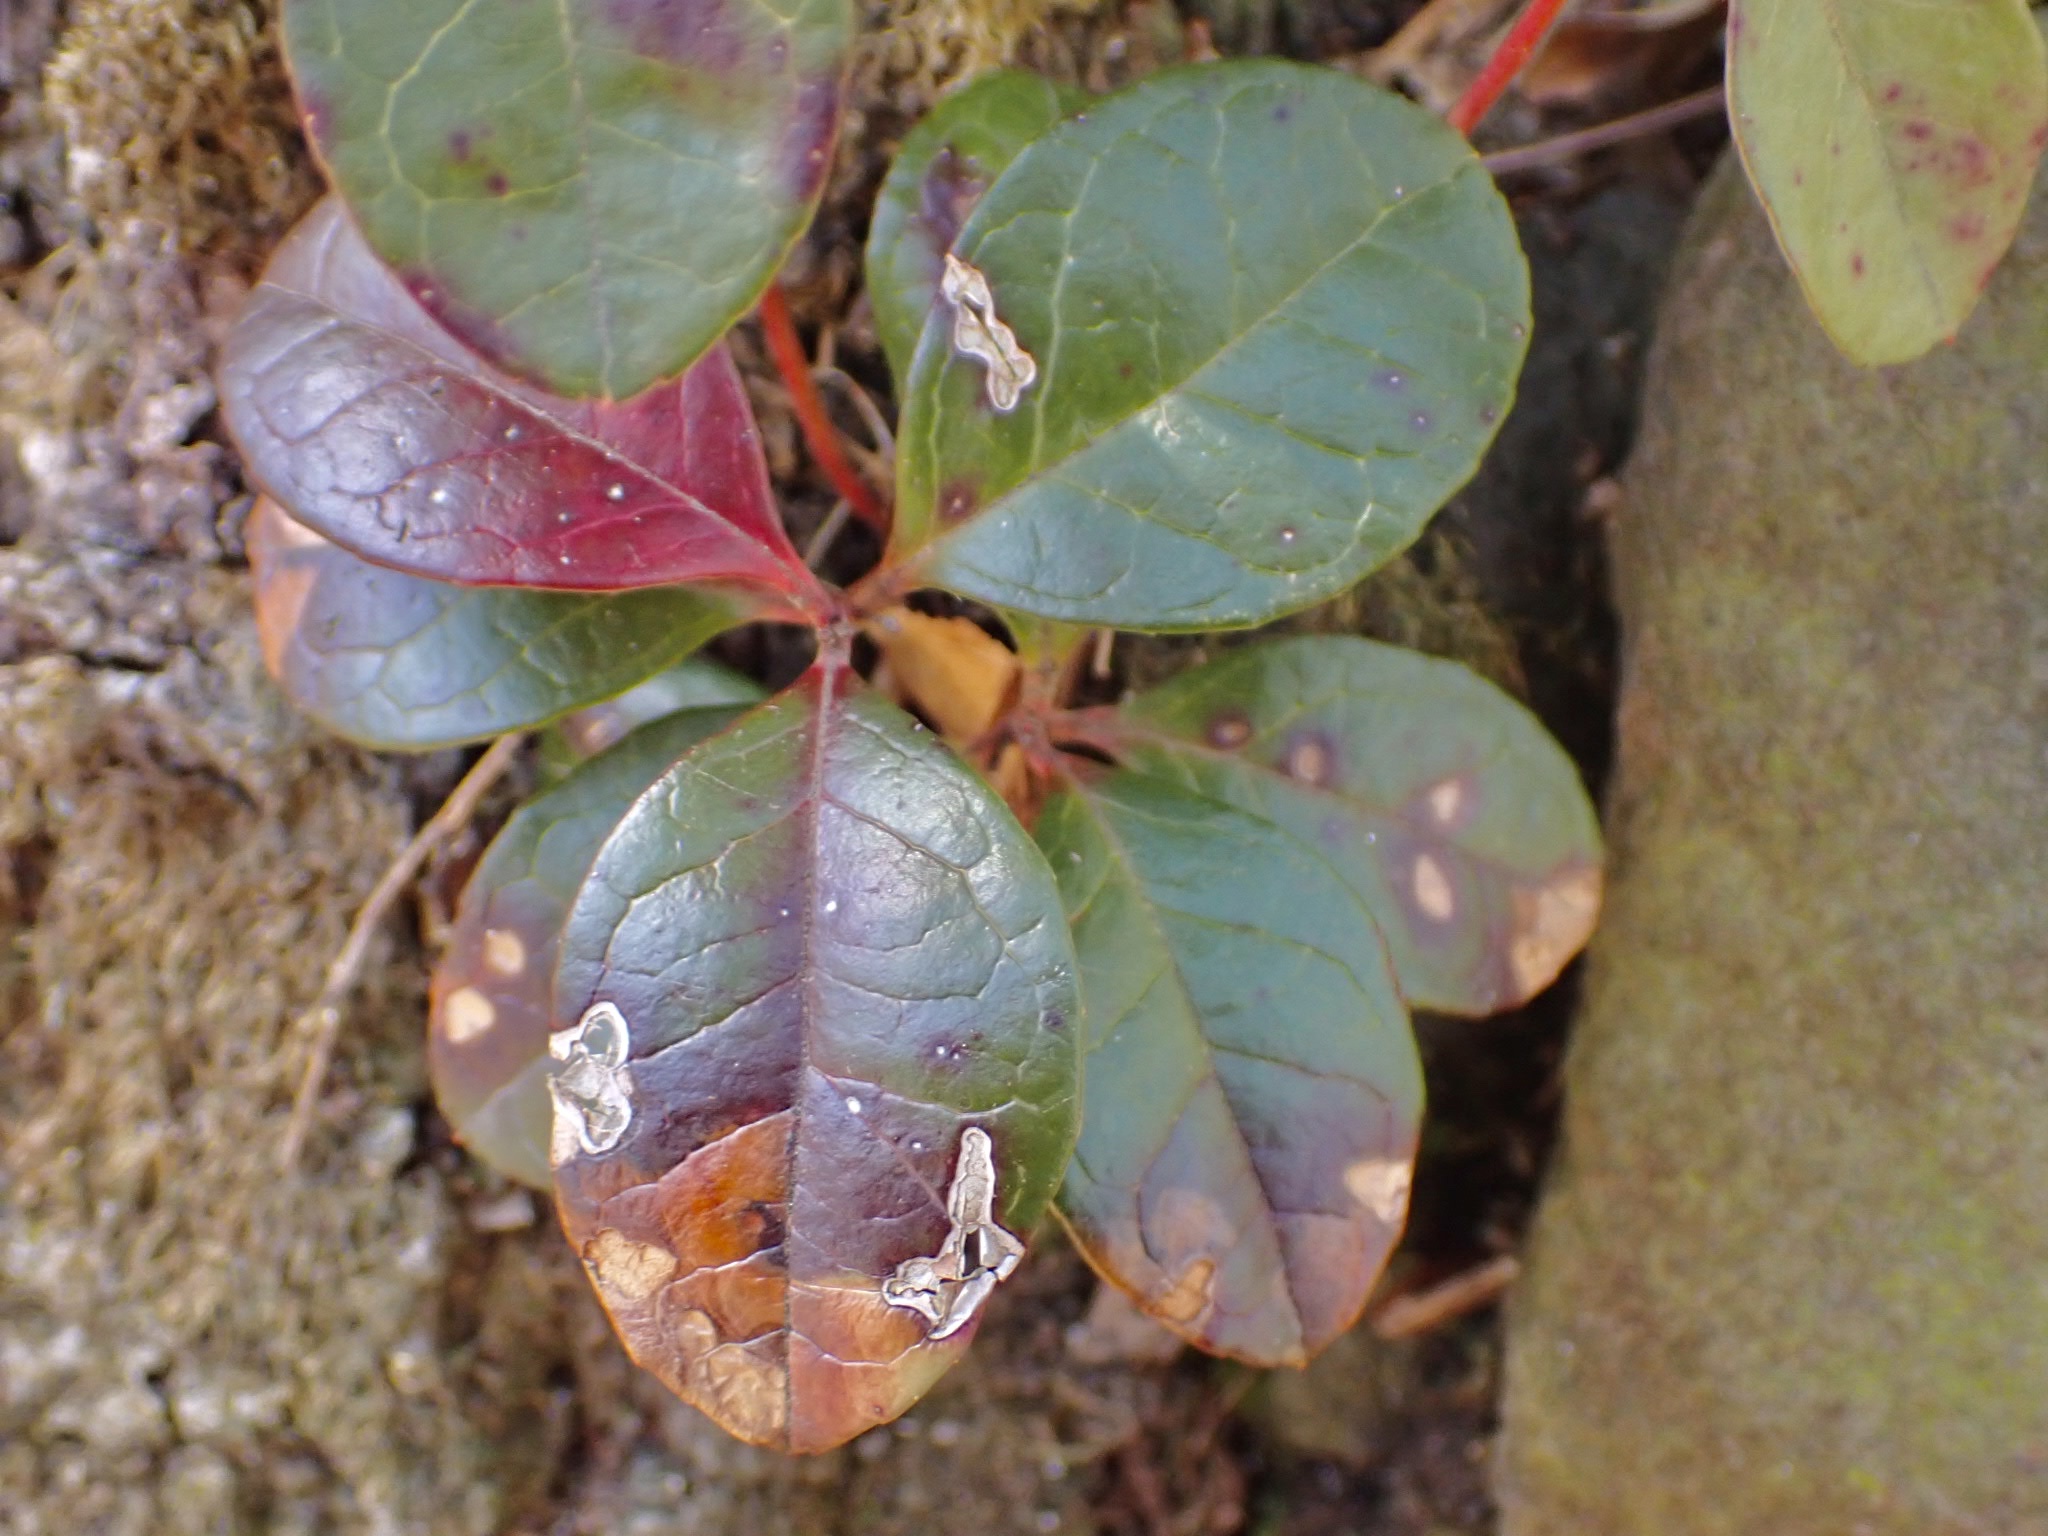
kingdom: Plantae
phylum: Tracheophyta
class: Magnoliopsida
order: Ericales
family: Ericaceae
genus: Gaultheria
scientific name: Gaultheria procumbens
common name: Checkerberry
